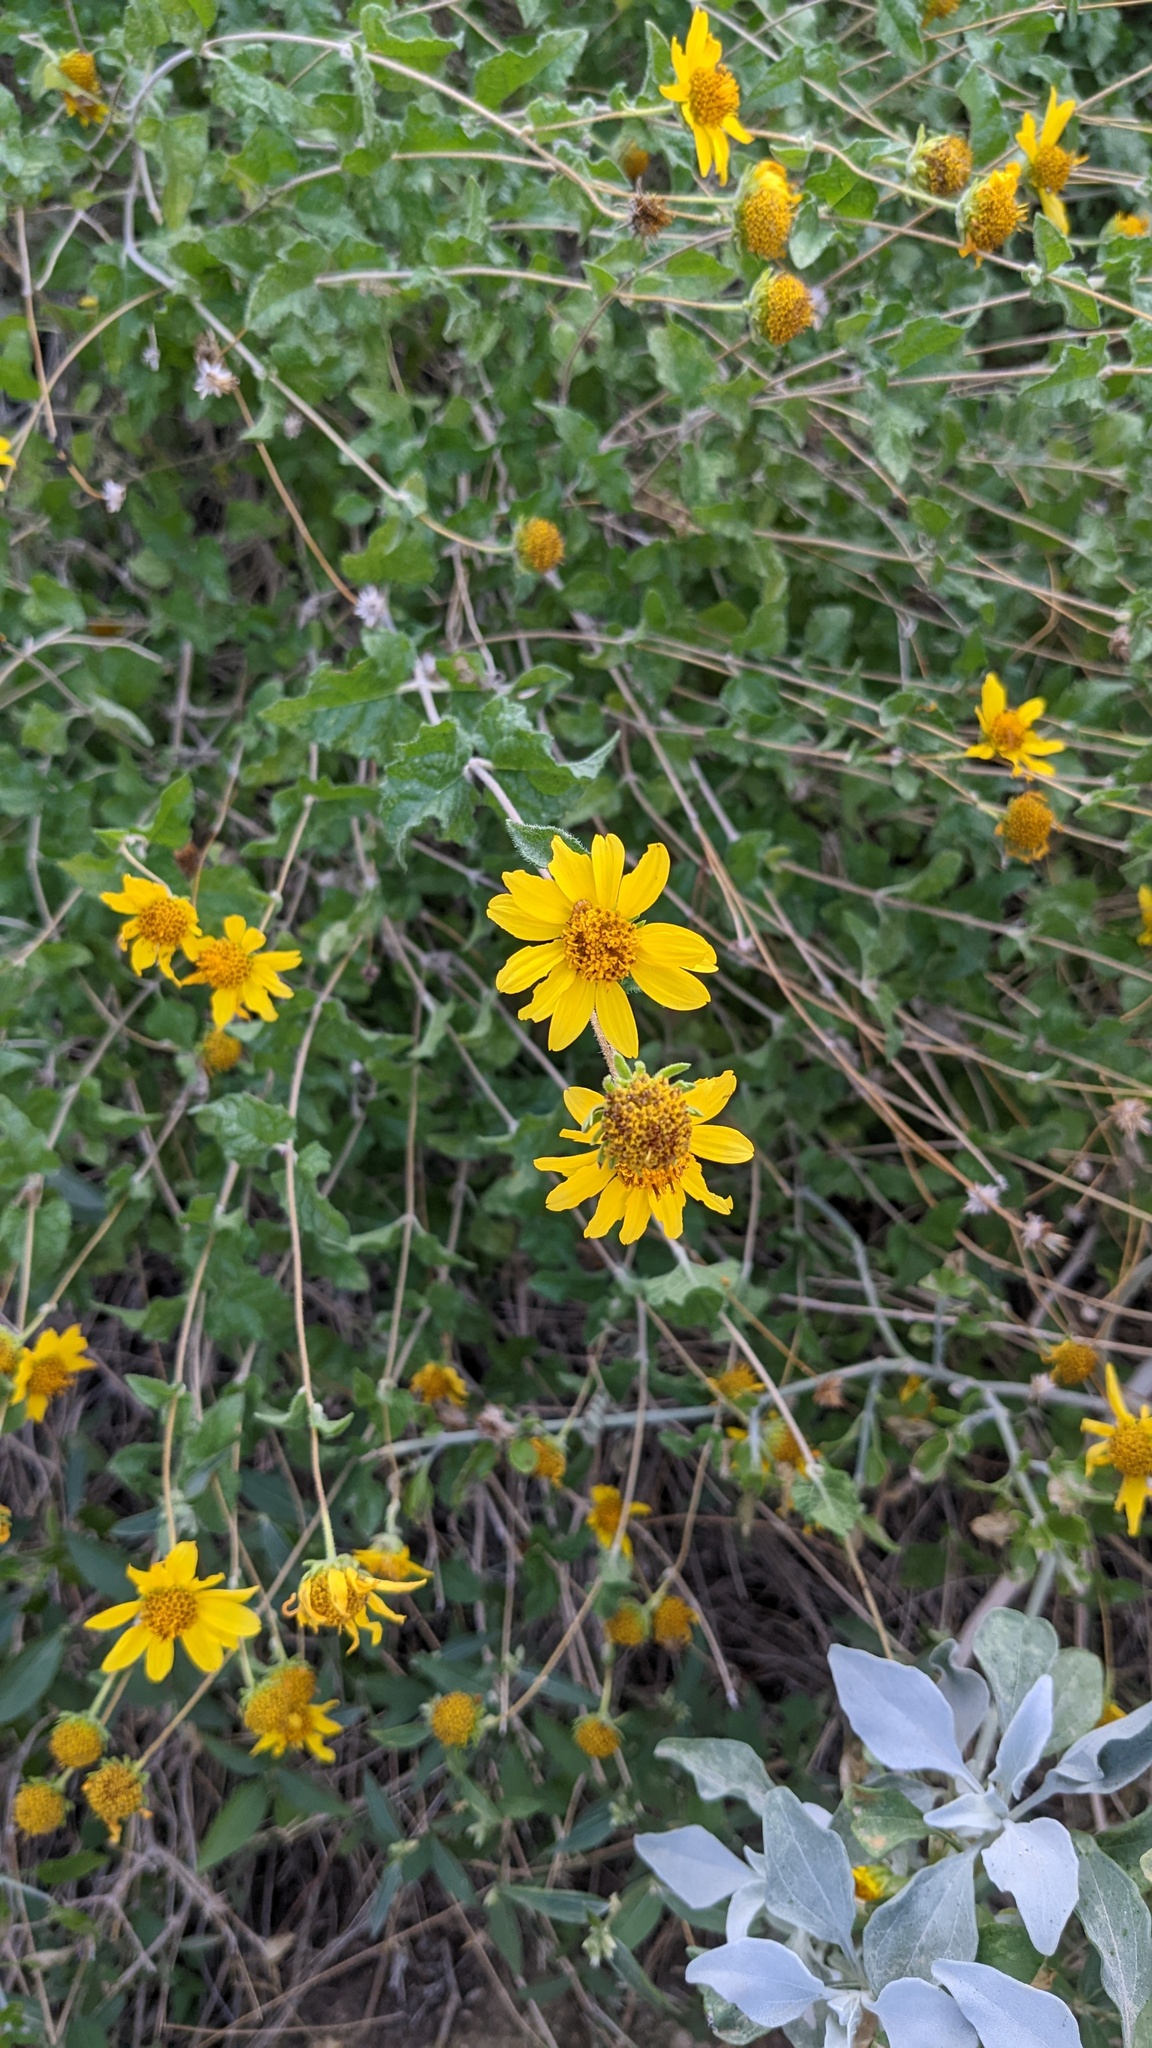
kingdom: Plantae
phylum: Tracheophyta
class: Magnoliopsida
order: Asterales
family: Asteraceae
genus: Bahiopsis
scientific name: Bahiopsis parishii
